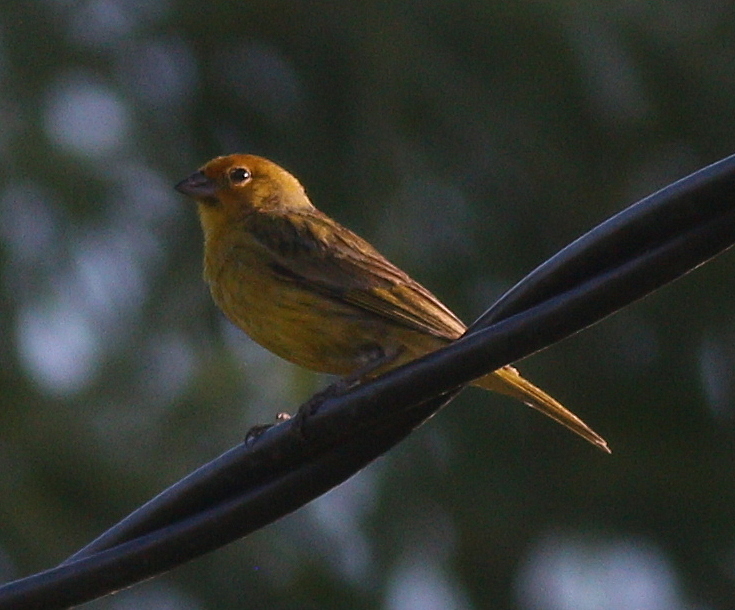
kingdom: Animalia
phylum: Chordata
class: Aves
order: Passeriformes
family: Thraupidae
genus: Sicalis
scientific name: Sicalis flaveola
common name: Saffron finch
